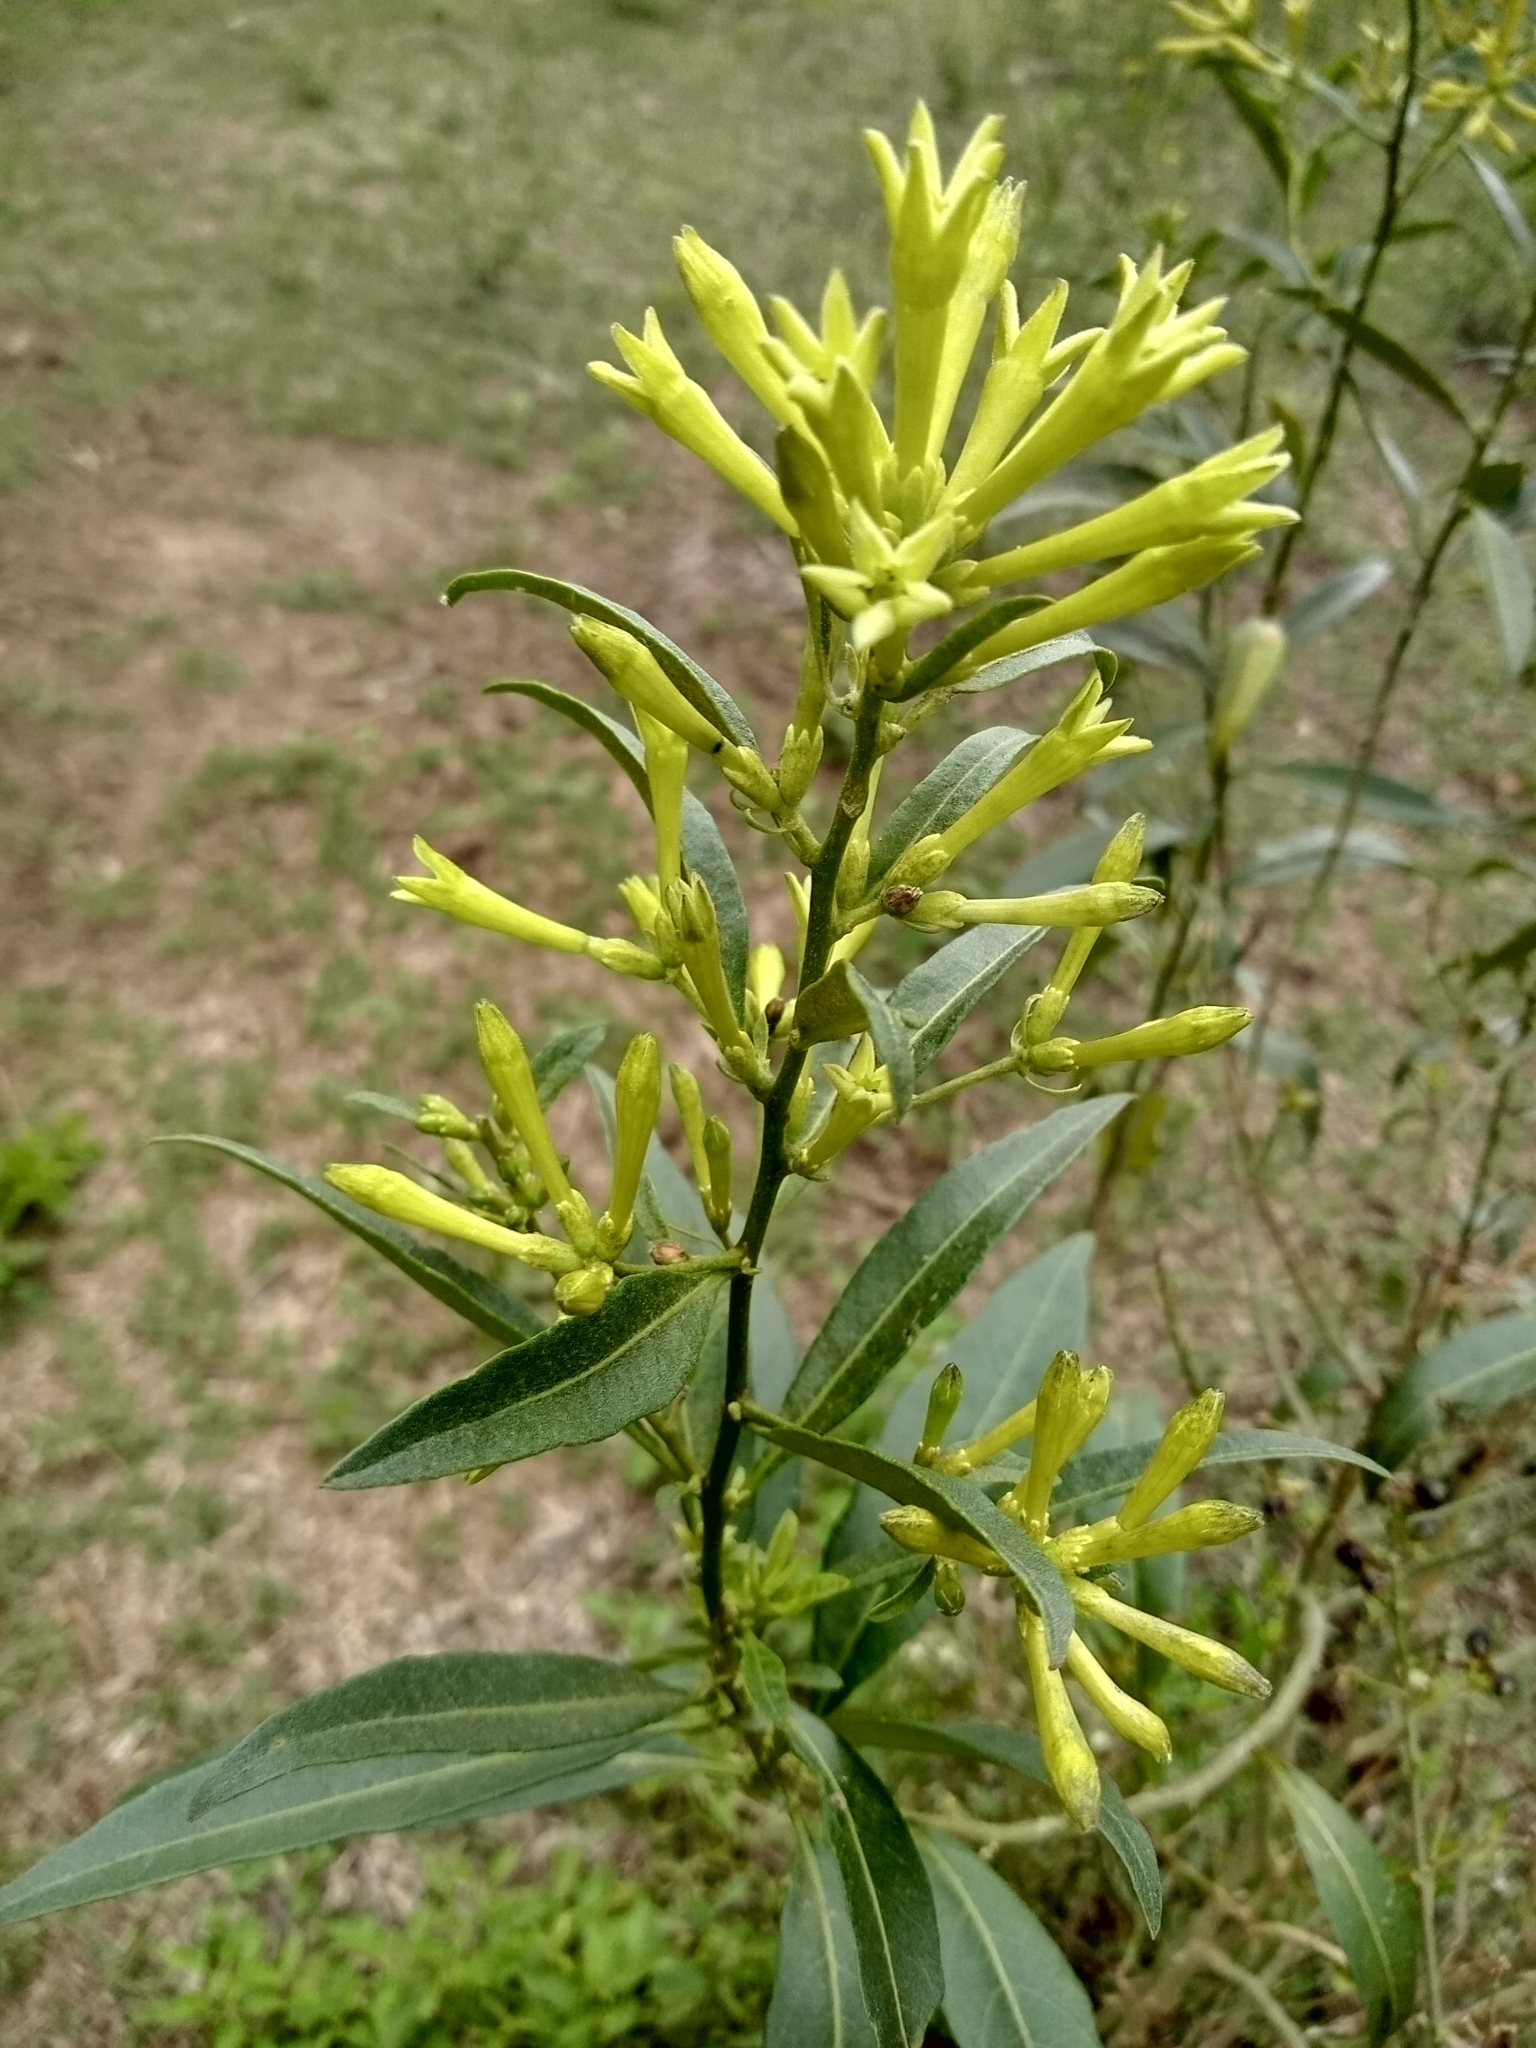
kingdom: Plantae
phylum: Tracheophyta
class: Magnoliopsida
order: Solanales
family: Solanaceae
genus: Cestrum
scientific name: Cestrum parqui
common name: Chilean cestrum
